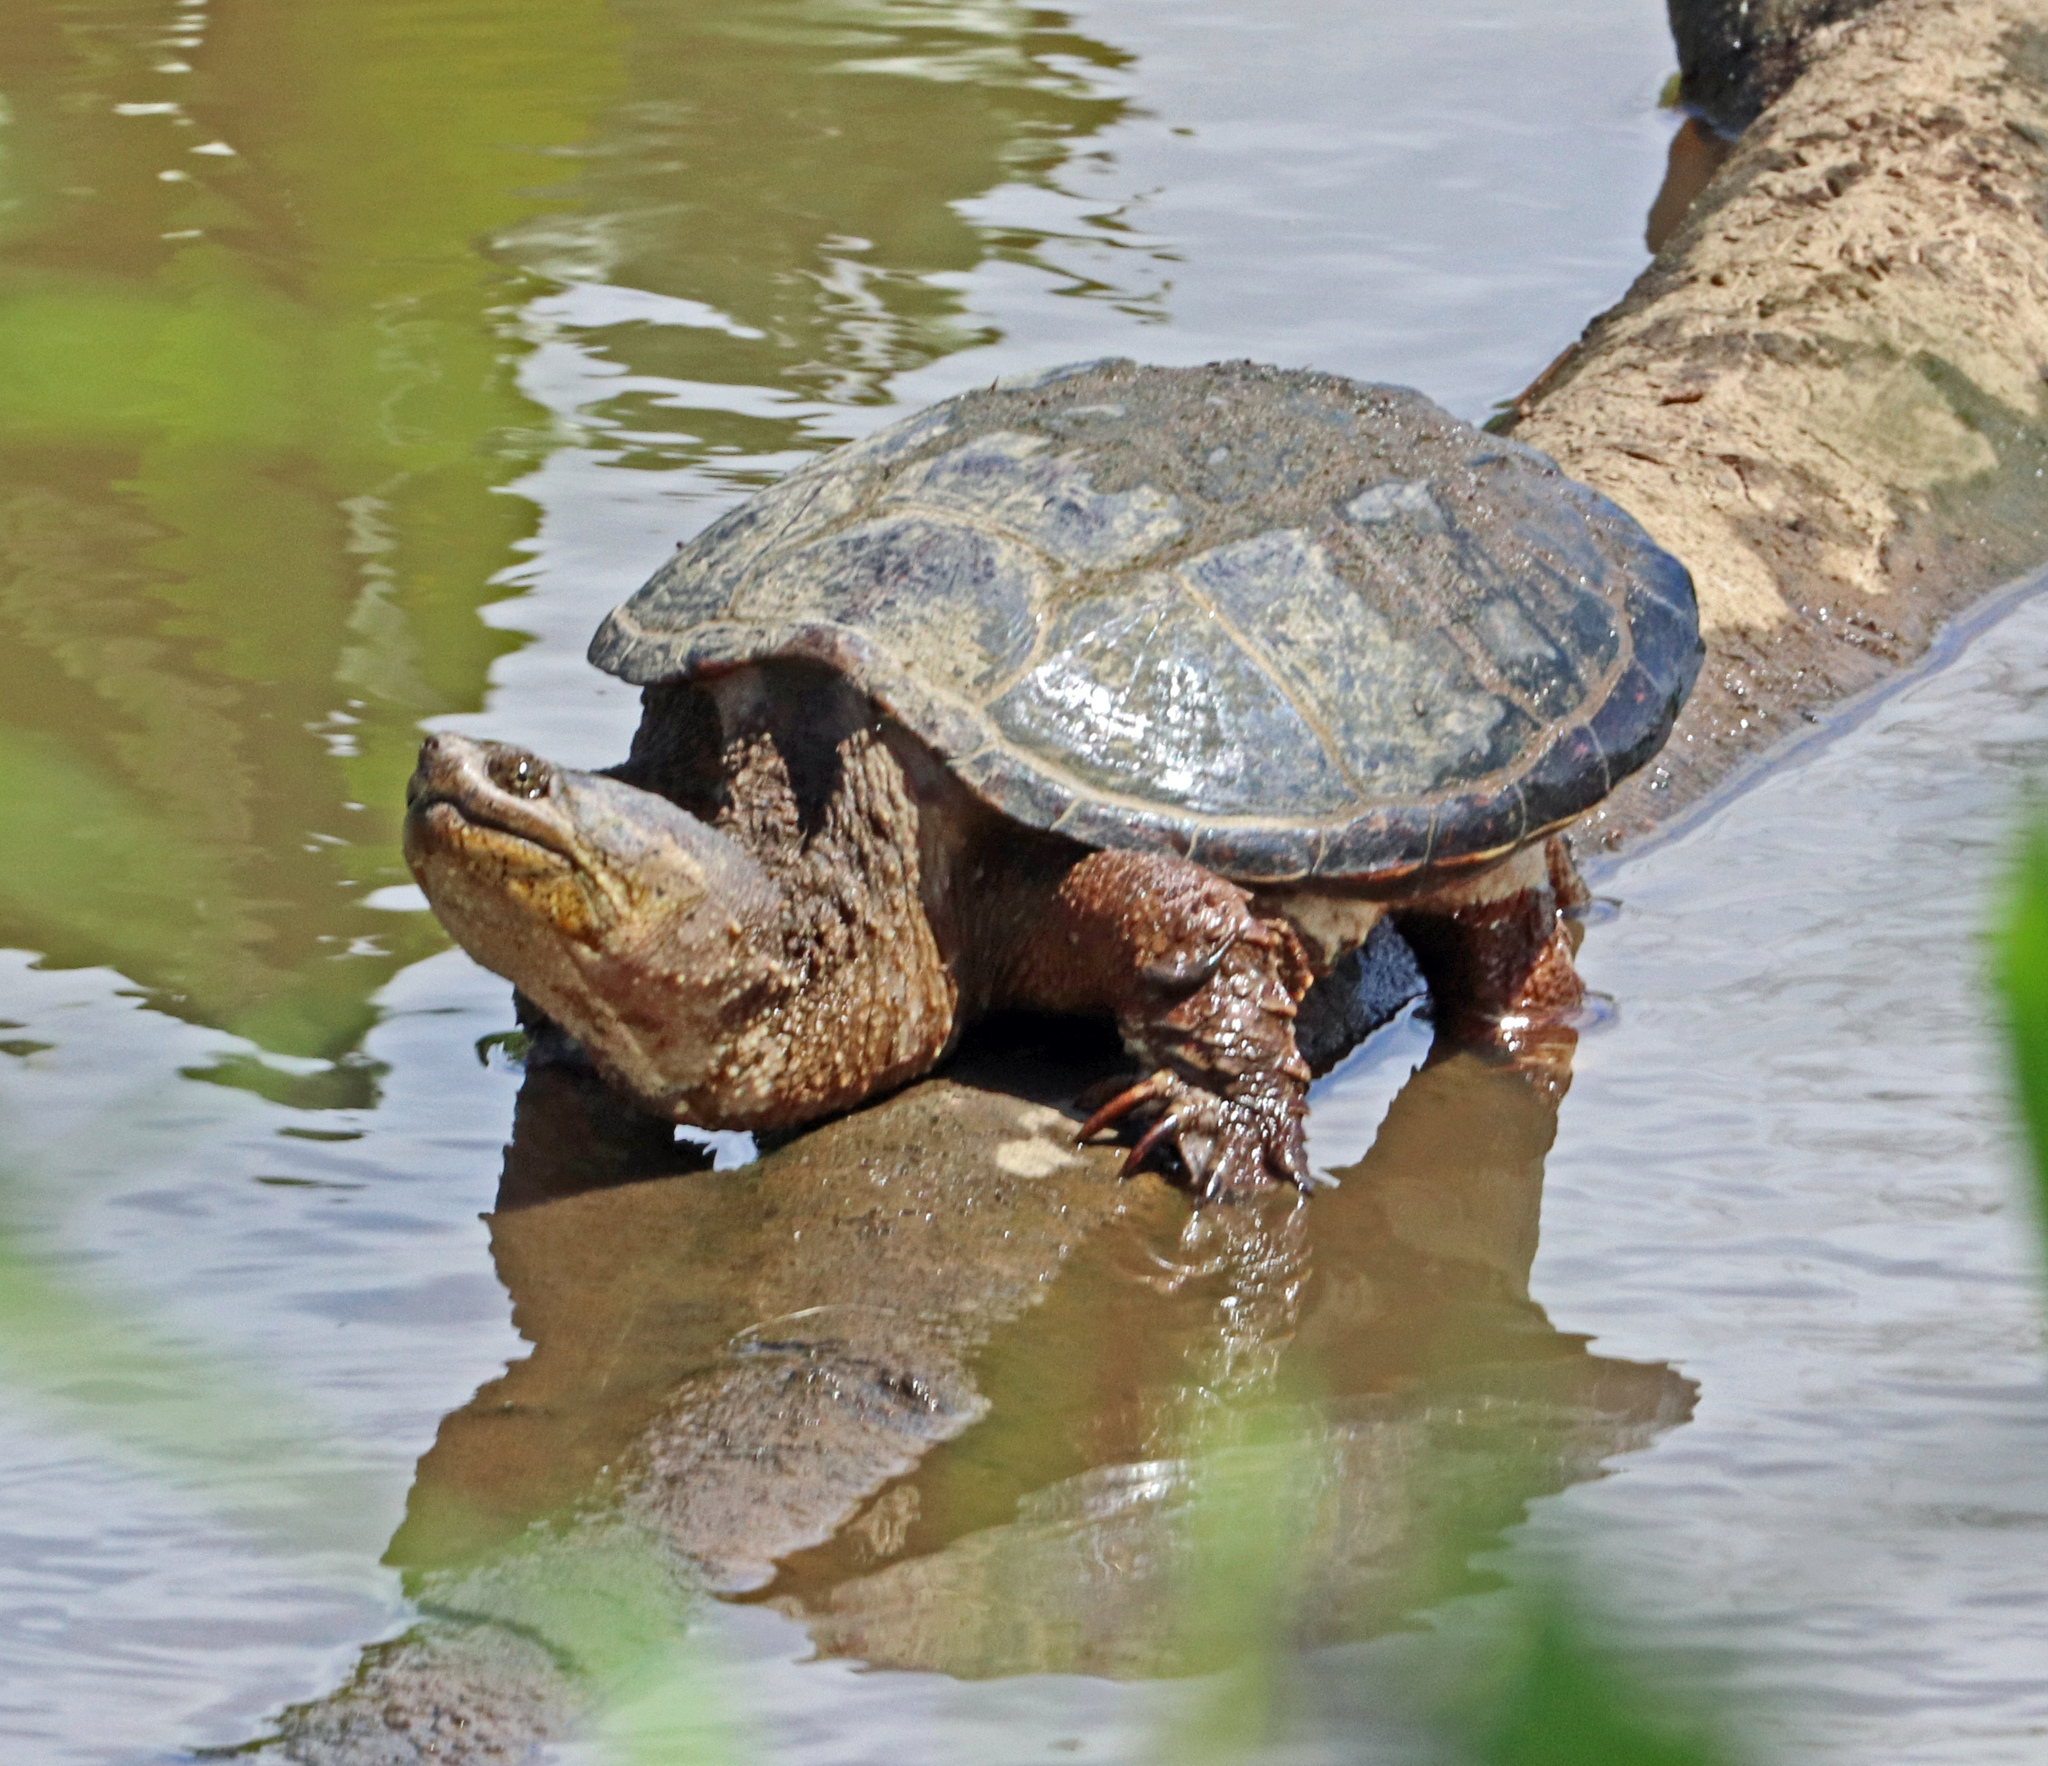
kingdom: Animalia
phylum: Chordata
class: Testudines
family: Chelydridae
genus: Chelydra
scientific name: Chelydra serpentina
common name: Common snapping turtle
